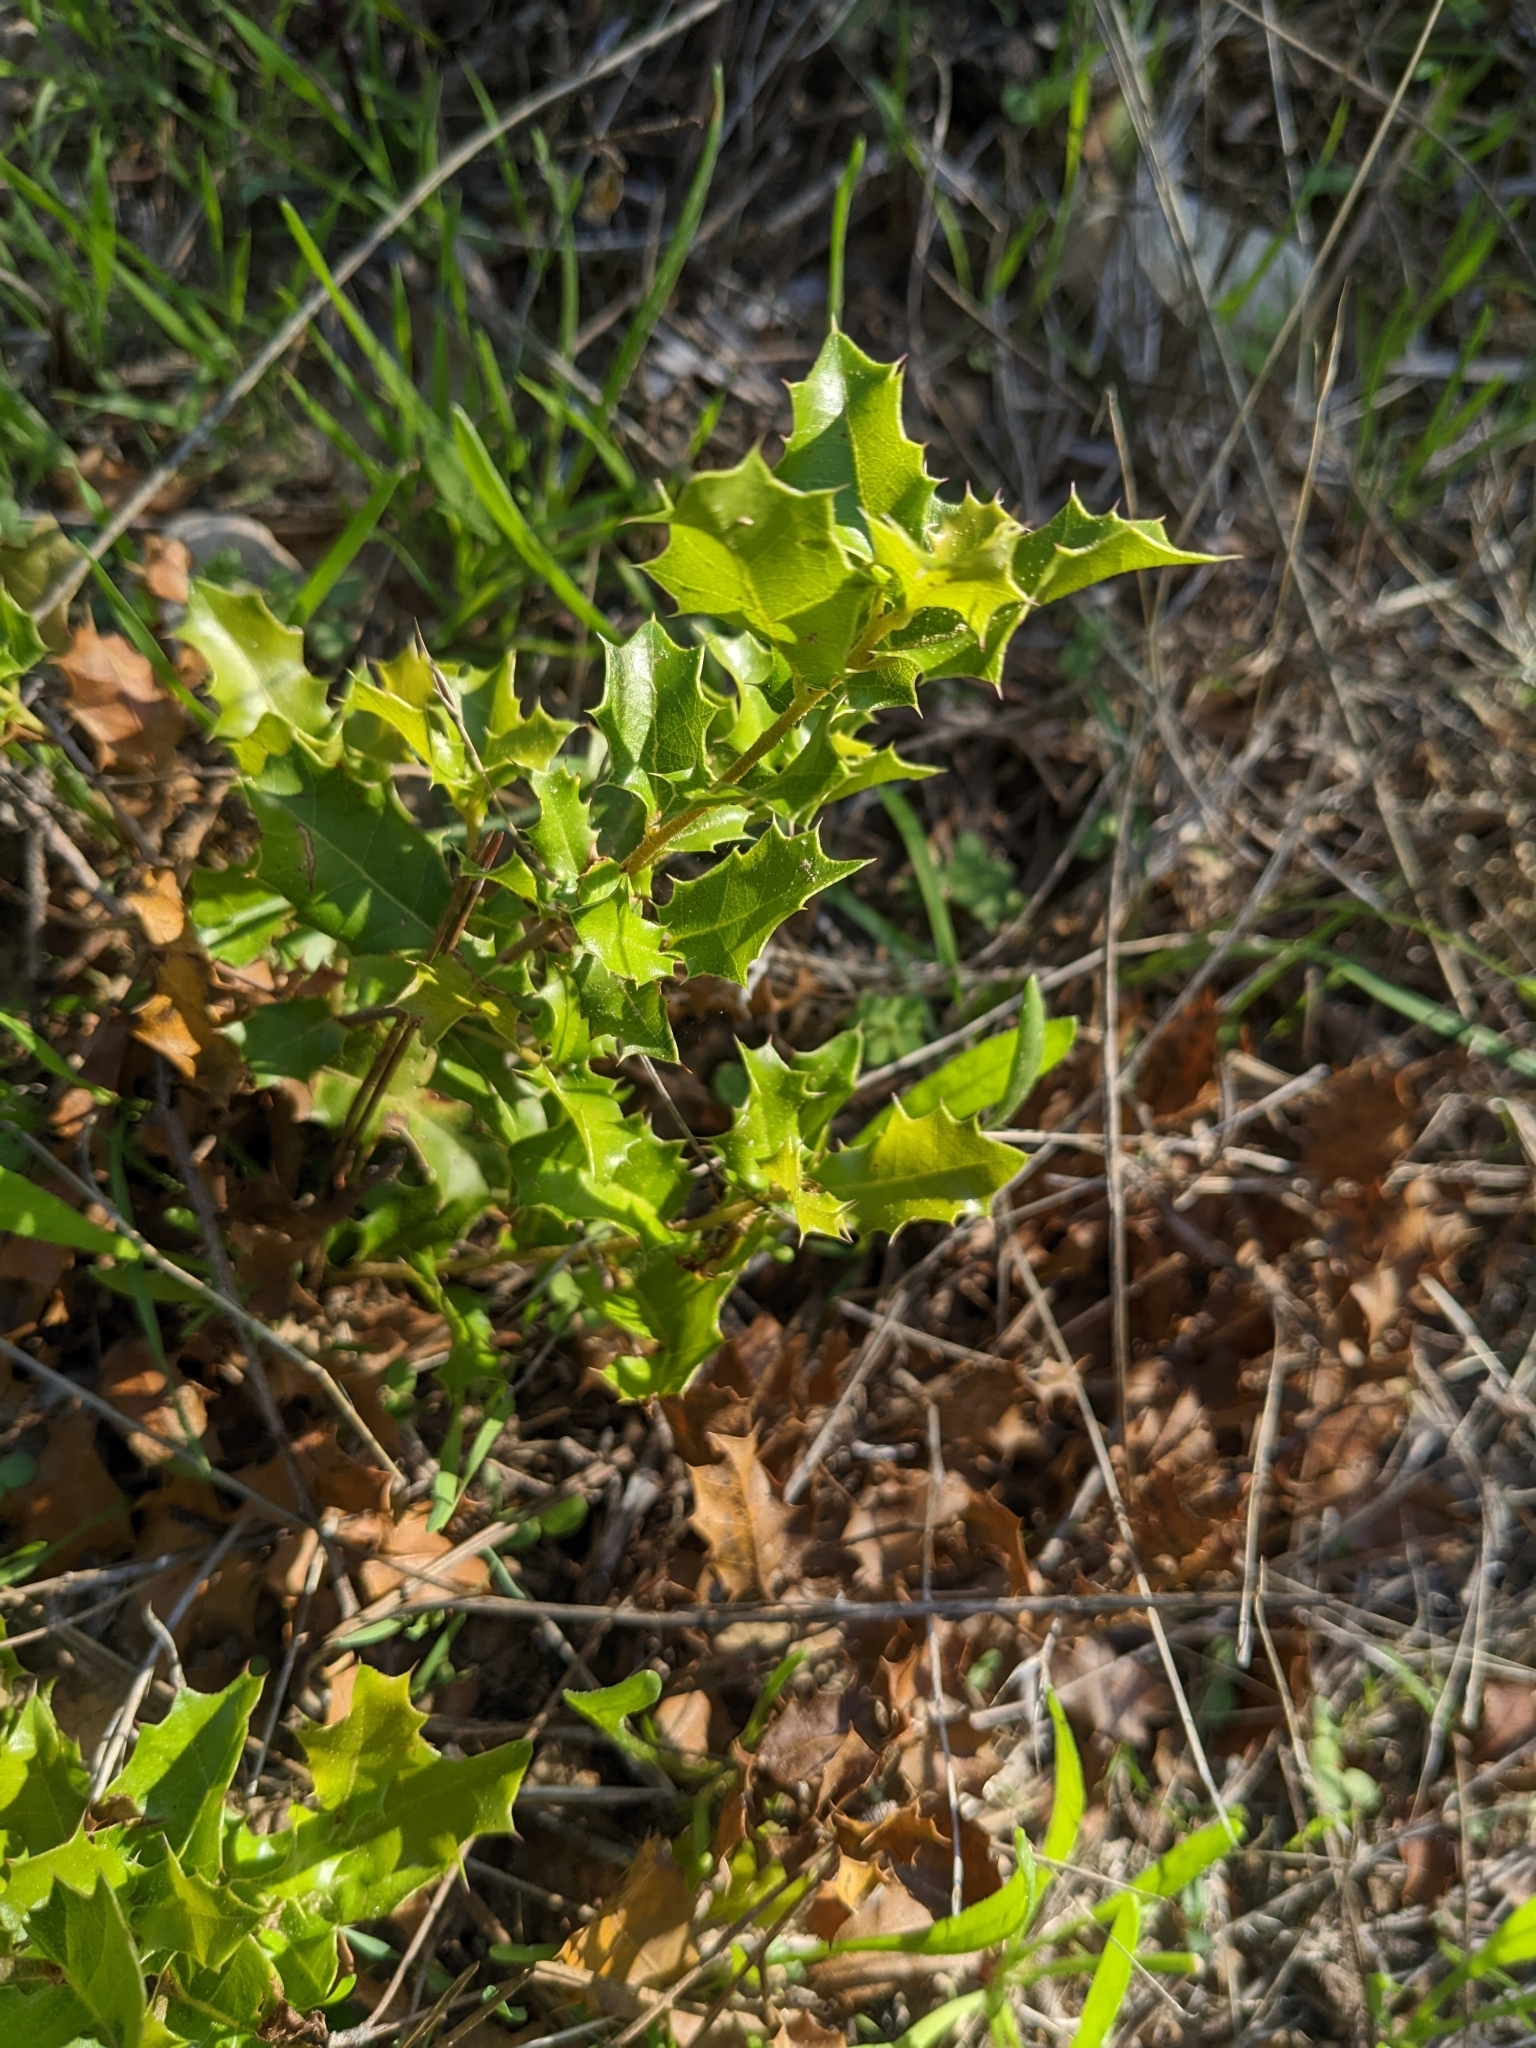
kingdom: Plantae
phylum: Tracheophyta
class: Magnoliopsida
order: Fagales
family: Fagaceae
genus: Quercus
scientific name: Quercus coccifera
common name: Kermes oak
